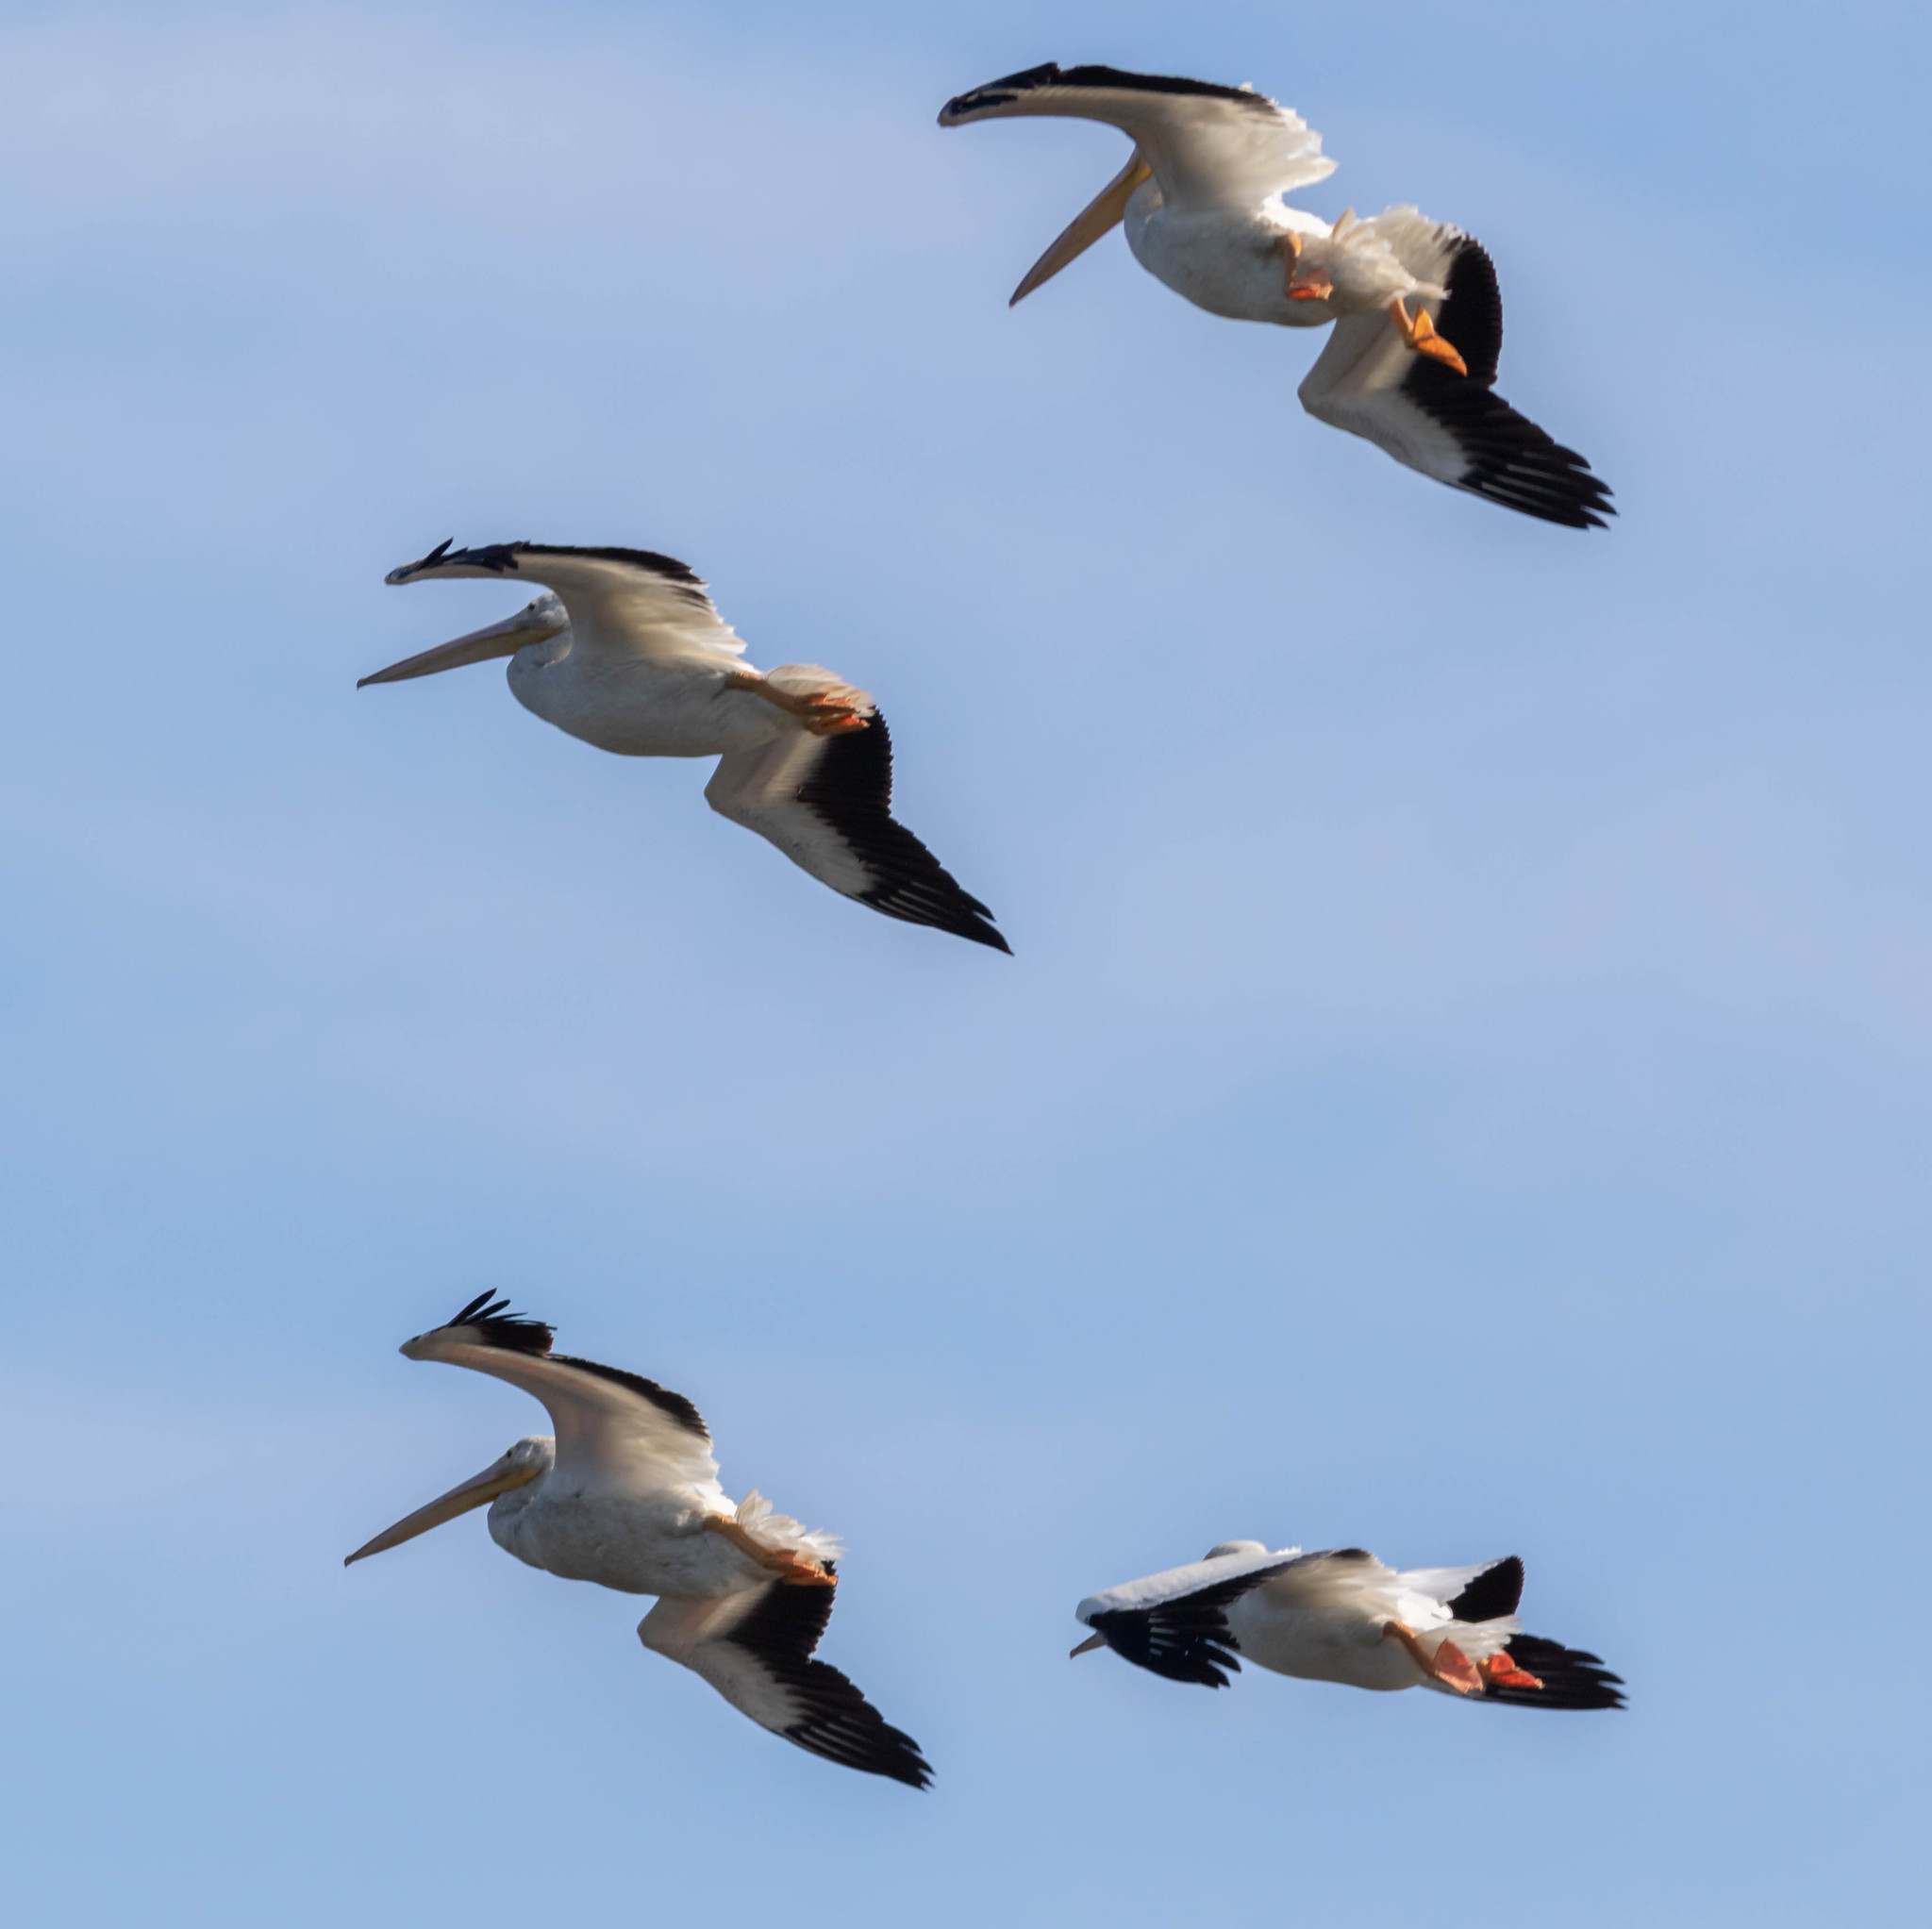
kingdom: Animalia
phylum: Chordata
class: Aves
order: Pelecaniformes
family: Pelecanidae
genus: Pelecanus
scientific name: Pelecanus erythrorhynchos
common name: American white pelican
